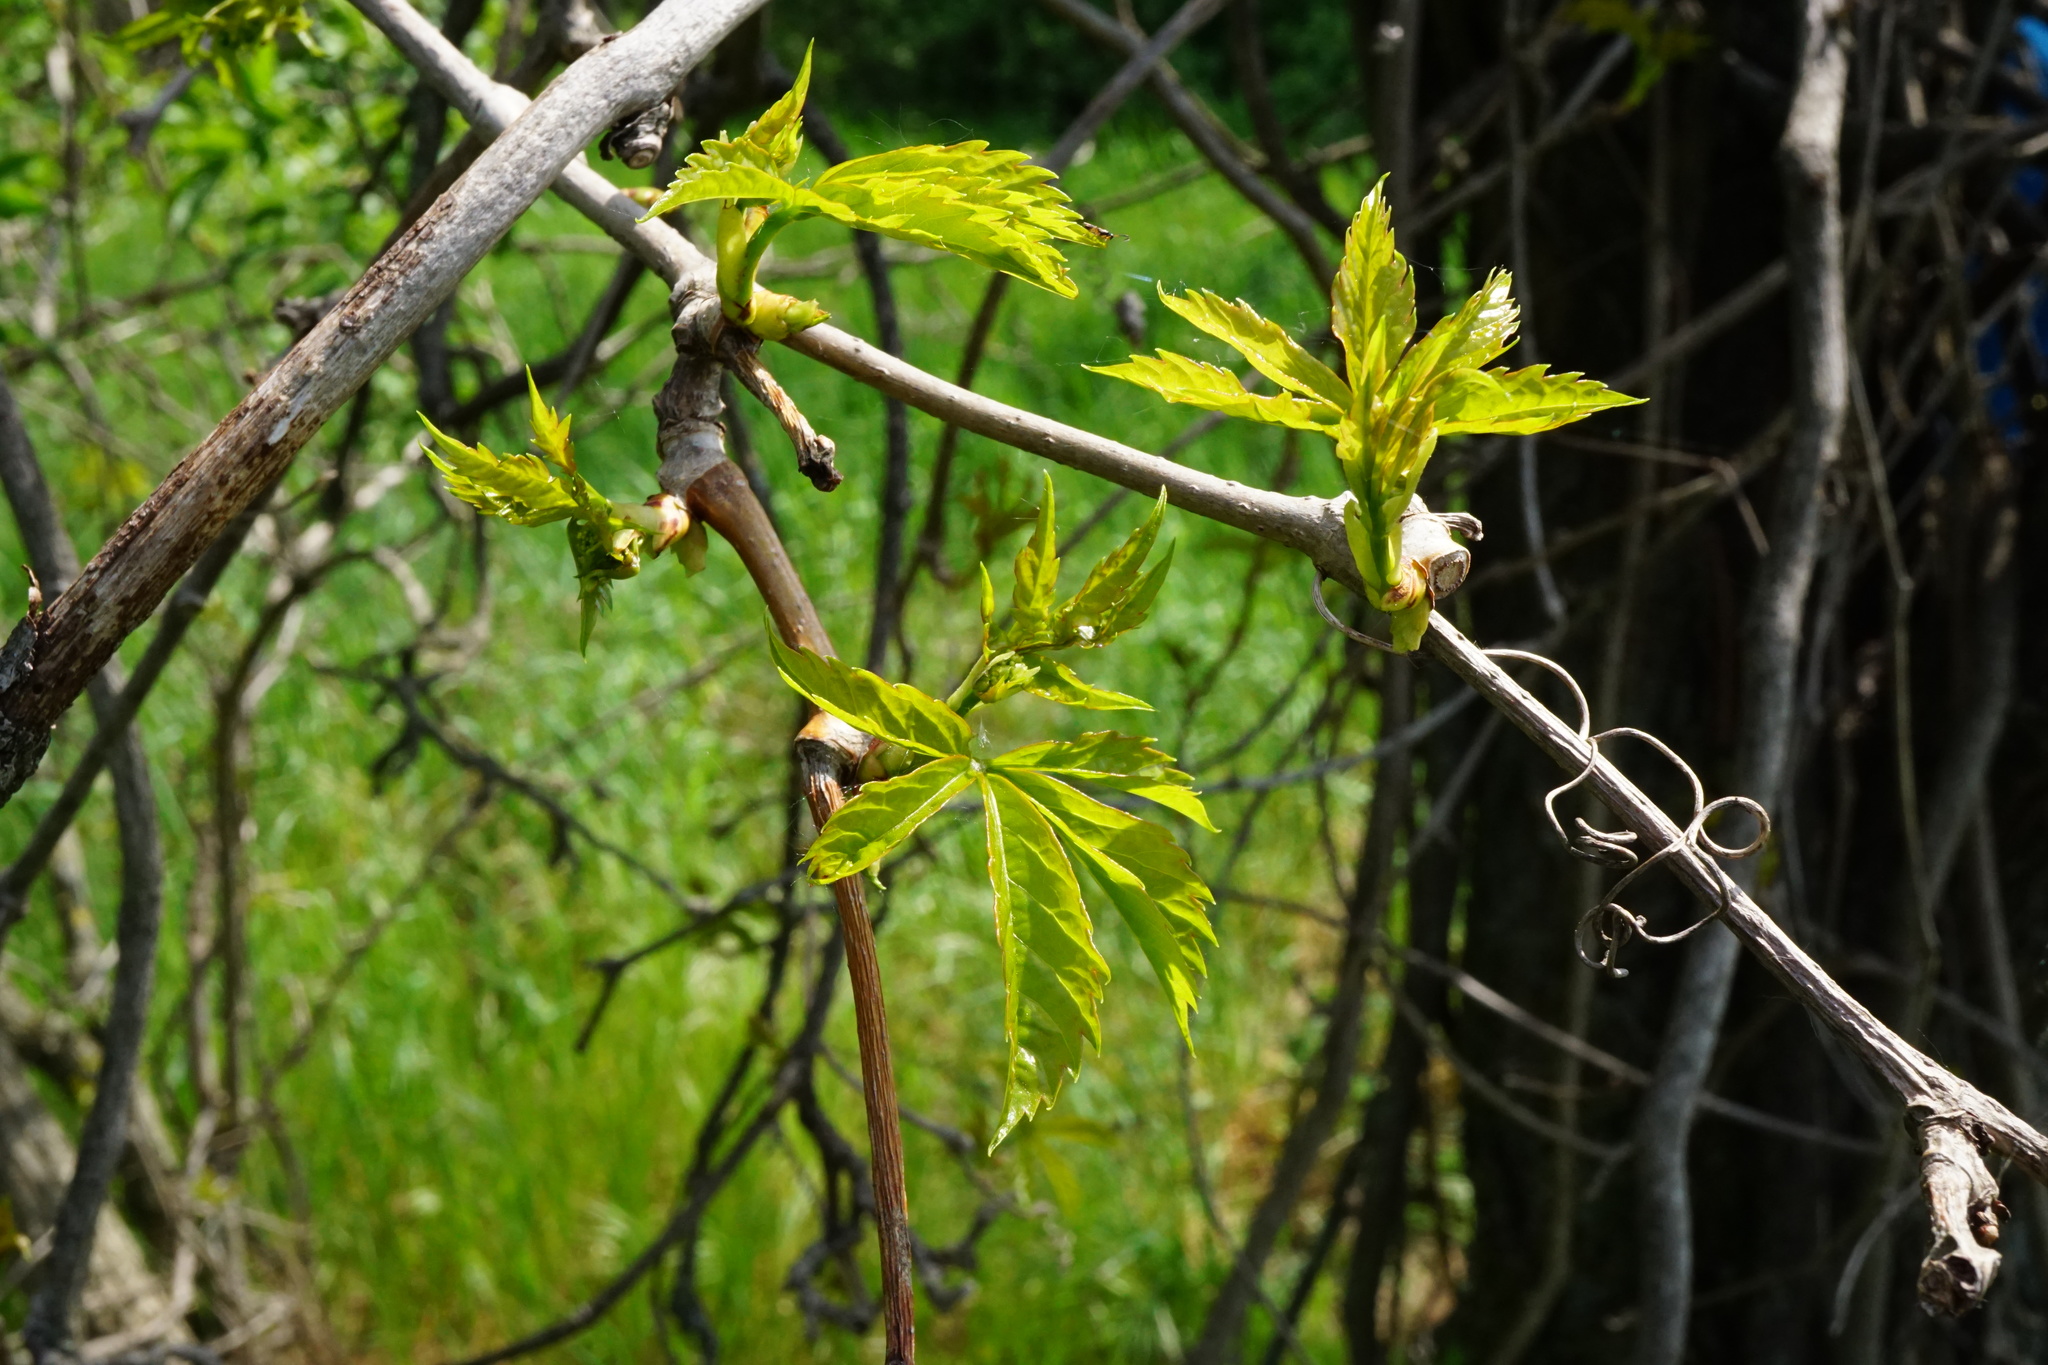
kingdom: Plantae
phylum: Tracheophyta
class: Magnoliopsida
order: Vitales
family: Vitaceae
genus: Parthenocissus
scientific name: Parthenocissus inserta
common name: False virginia-creeper
